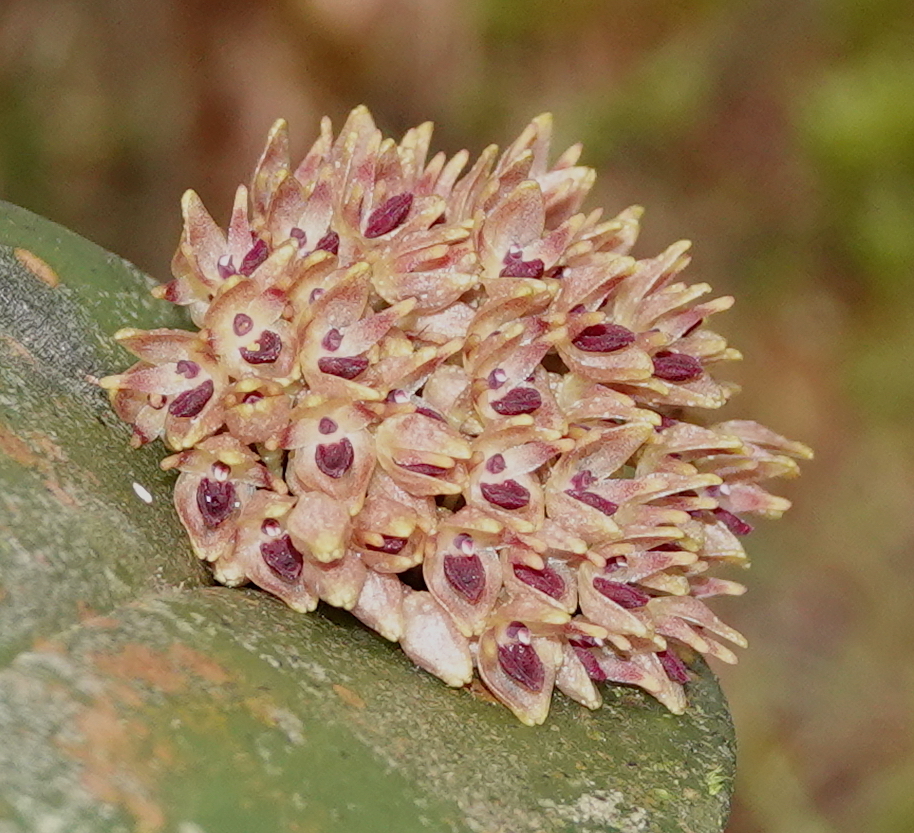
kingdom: Plantae
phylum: Tracheophyta
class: Liliopsida
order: Asparagales
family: Orchidaceae
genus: Pleurothallis
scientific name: Pleurothallis canaligera
